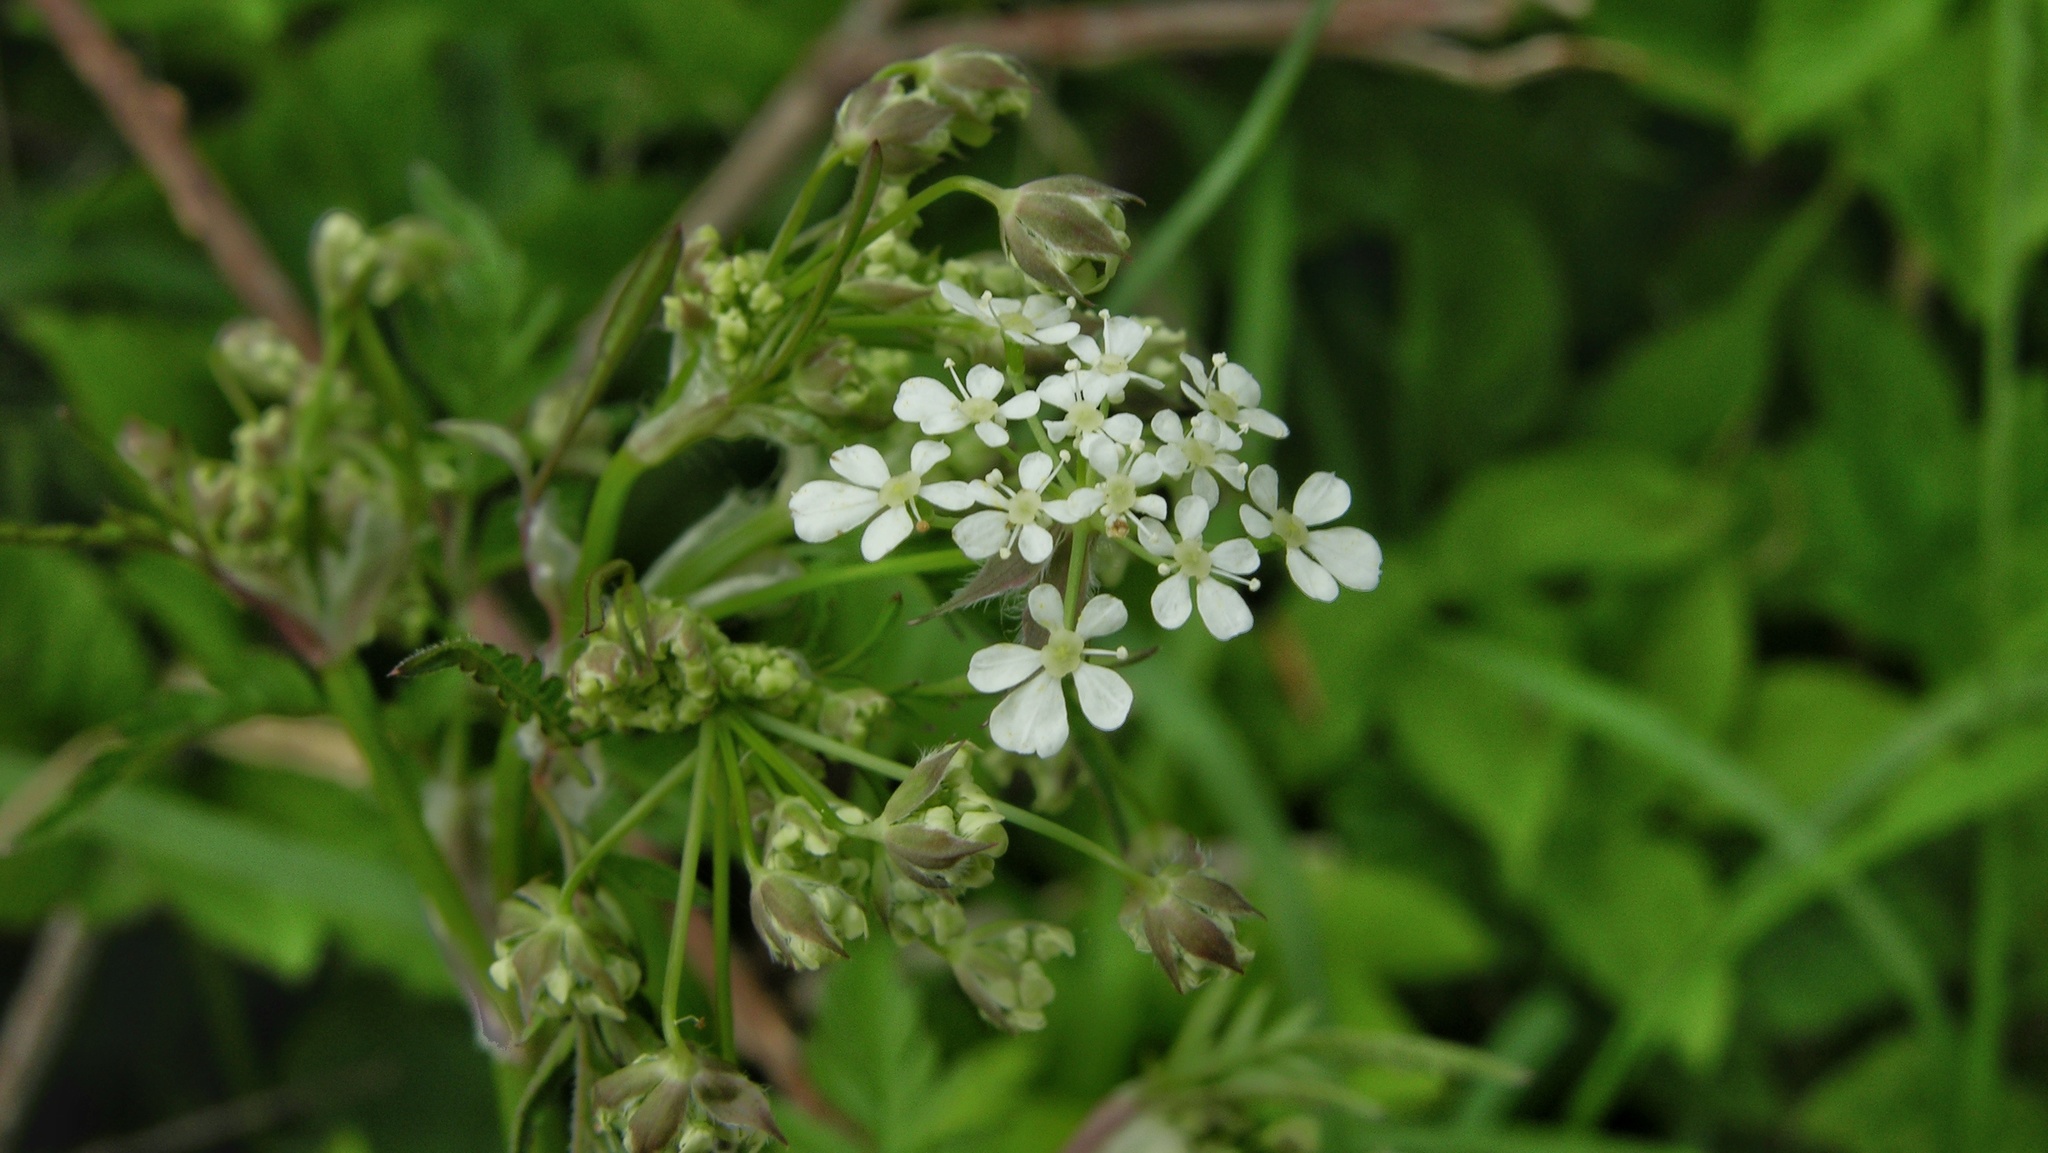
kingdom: Plantae
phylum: Tracheophyta
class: Magnoliopsida
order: Apiales
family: Apiaceae
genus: Anthriscus
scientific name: Anthriscus sylvestris
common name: Cow parsley
